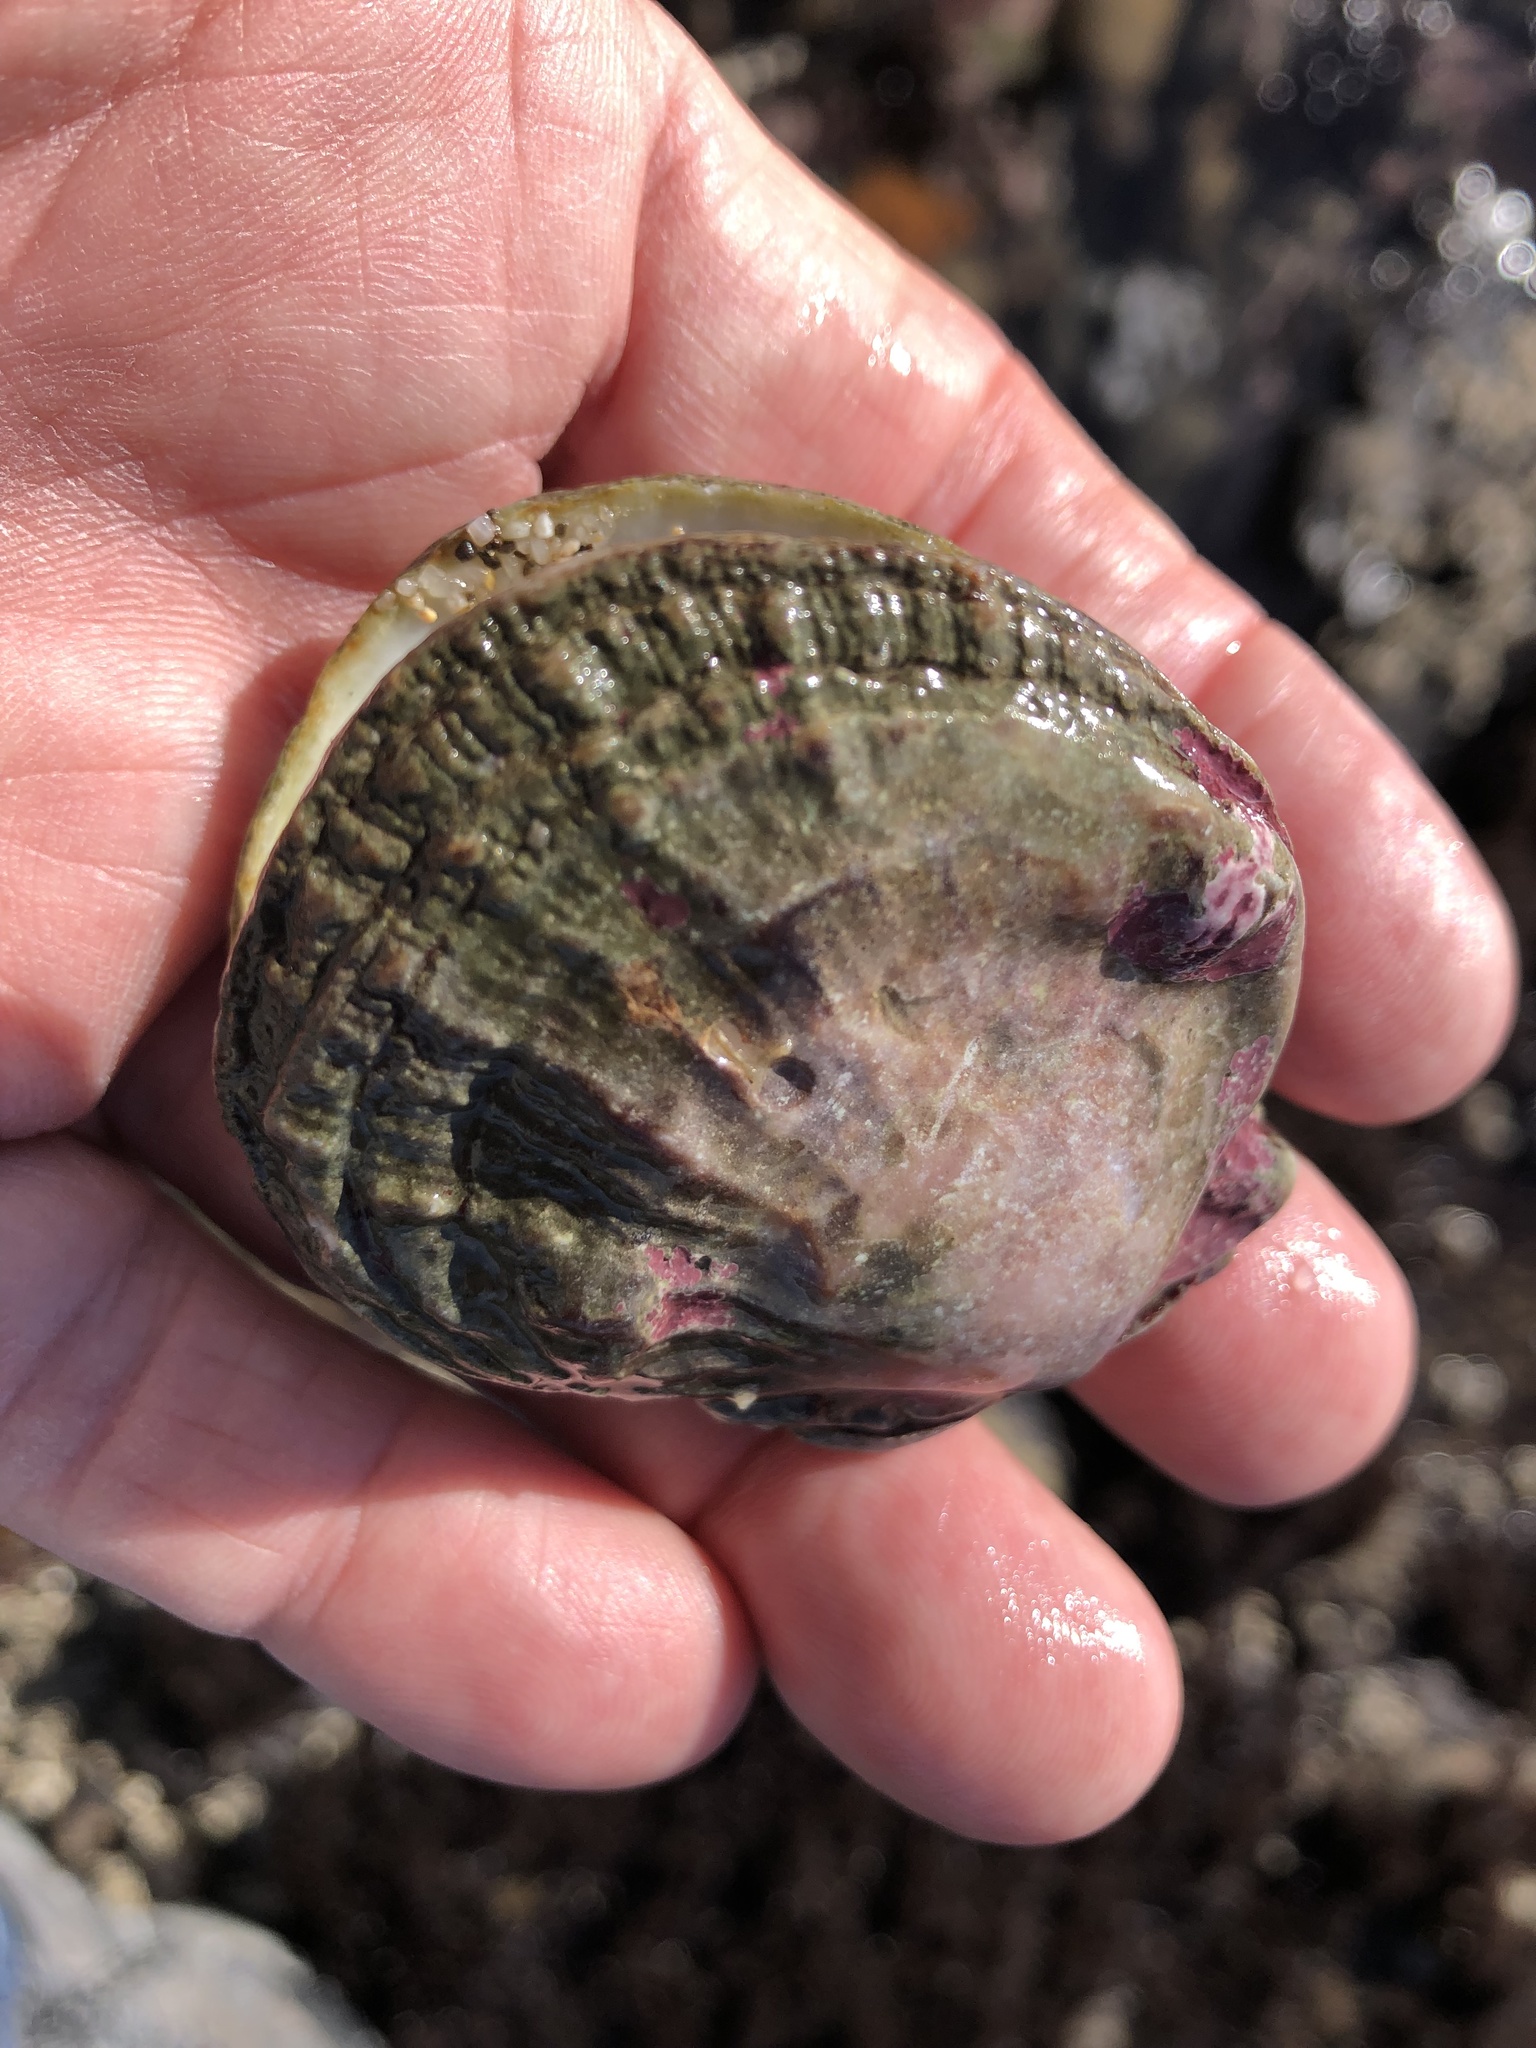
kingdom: Animalia
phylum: Mollusca
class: Bivalvia
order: Pectinida
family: Pectinidae
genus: Crassadoma
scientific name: Crassadoma gigantea
